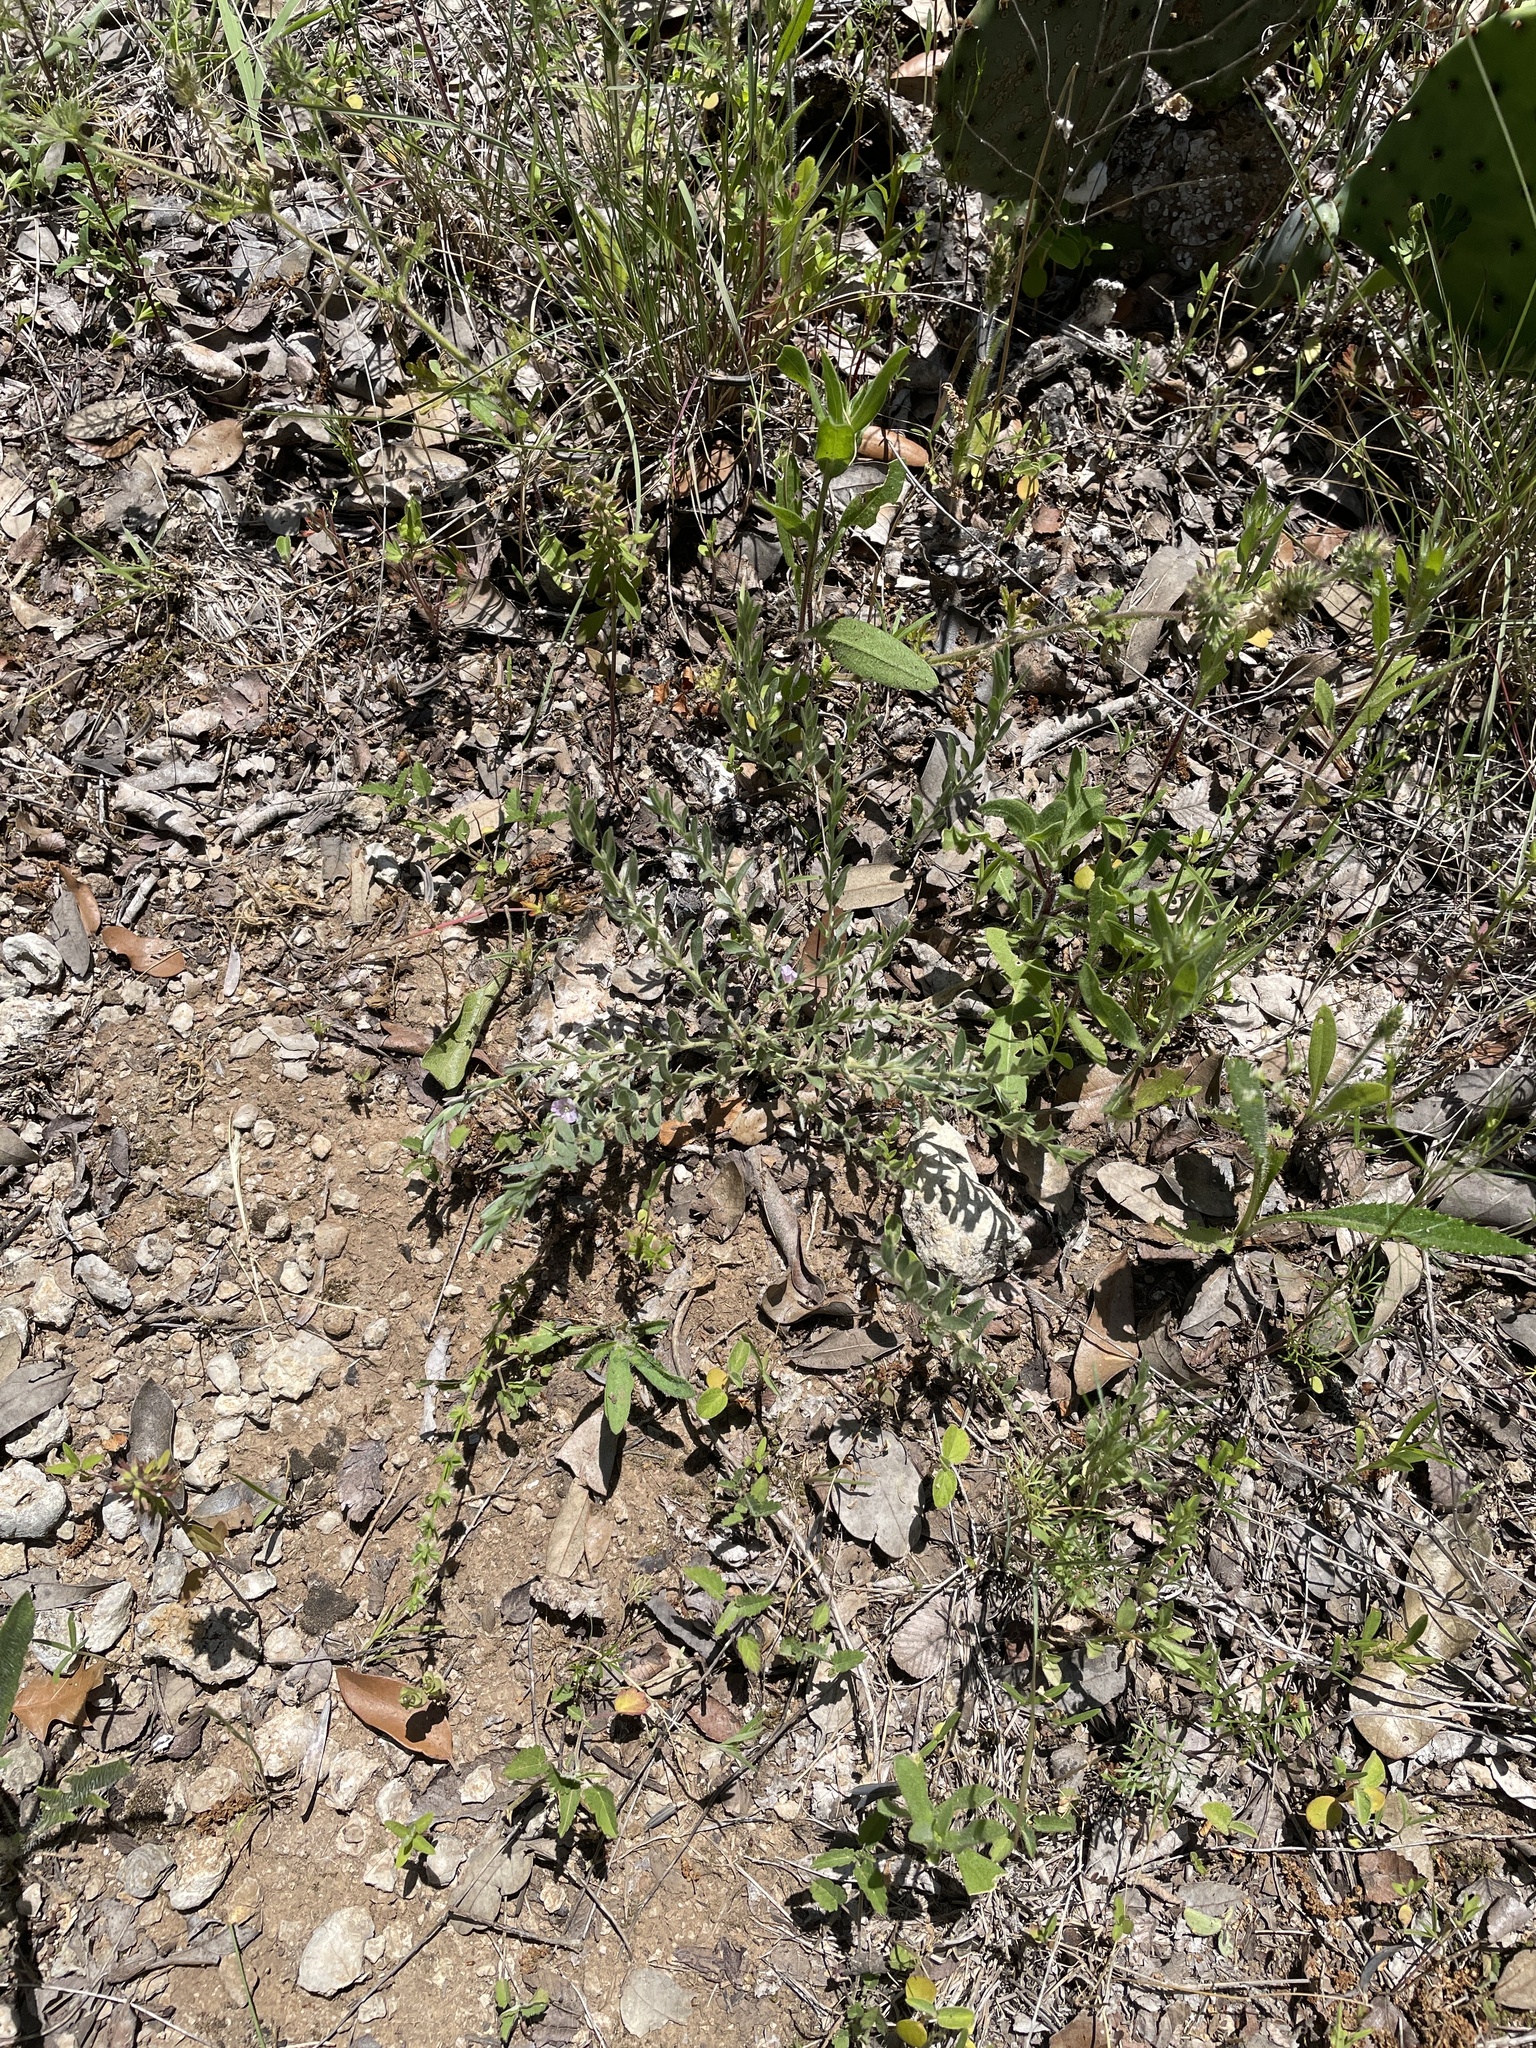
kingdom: Plantae
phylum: Tracheophyta
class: Magnoliopsida
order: Solanales
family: Convolvulaceae
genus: Evolvulus
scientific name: Evolvulus nuttallianus
